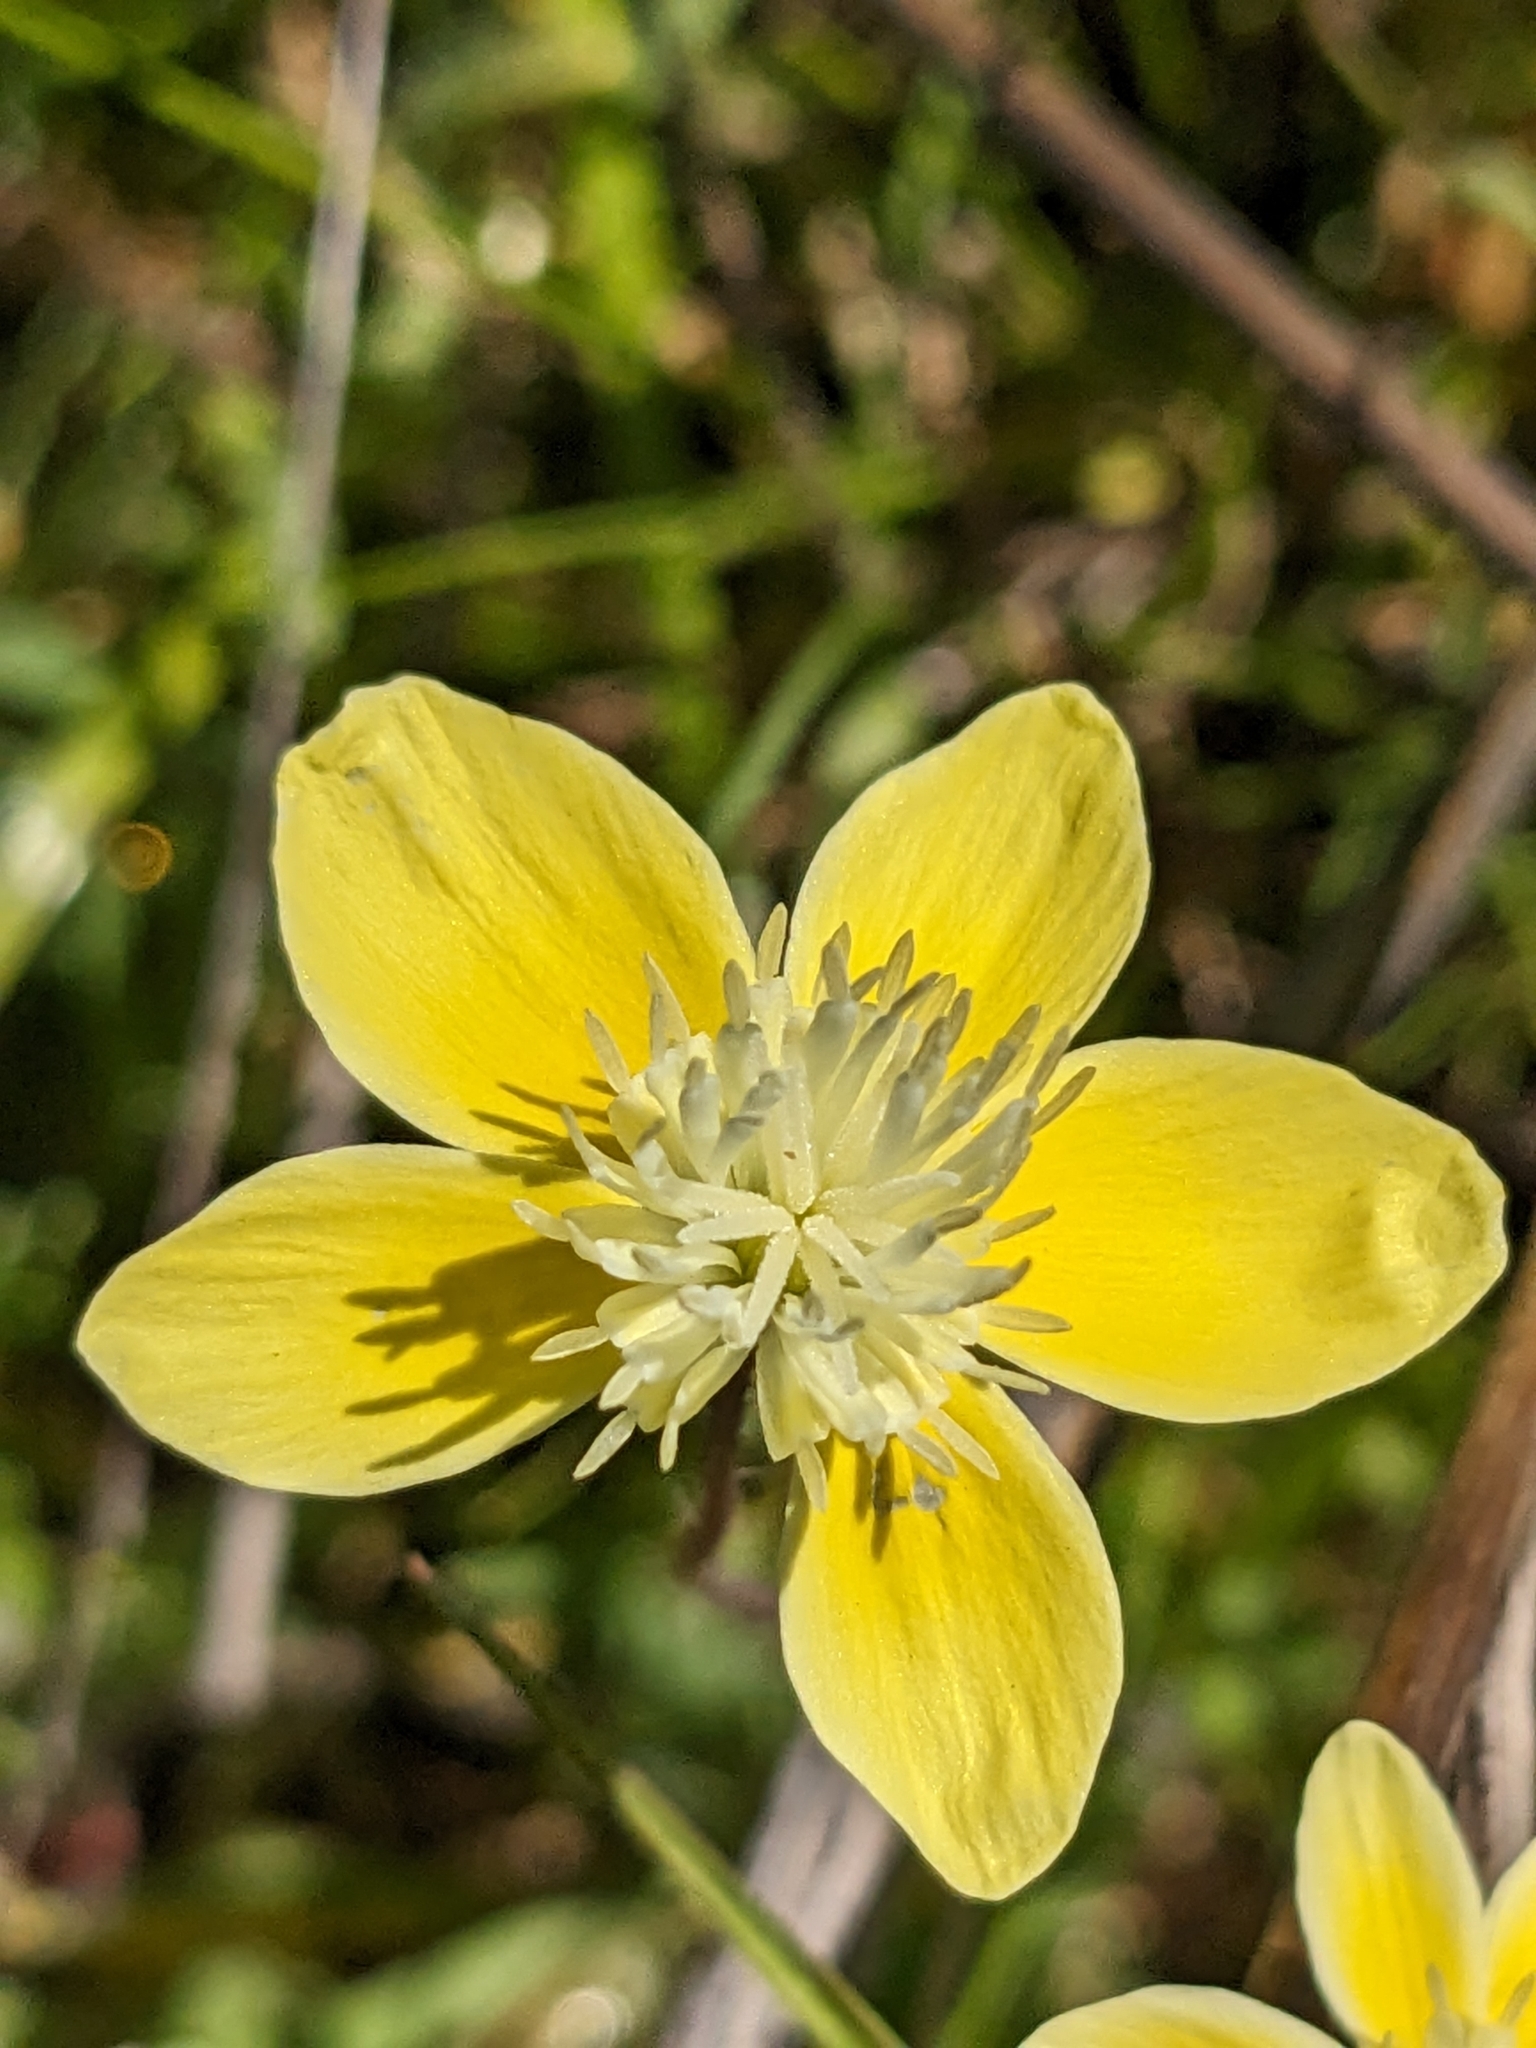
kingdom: Plantae
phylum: Tracheophyta
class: Magnoliopsida
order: Ranunculales
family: Papaveraceae
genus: Platystemon
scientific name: Platystemon californicus
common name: Cream-cups
